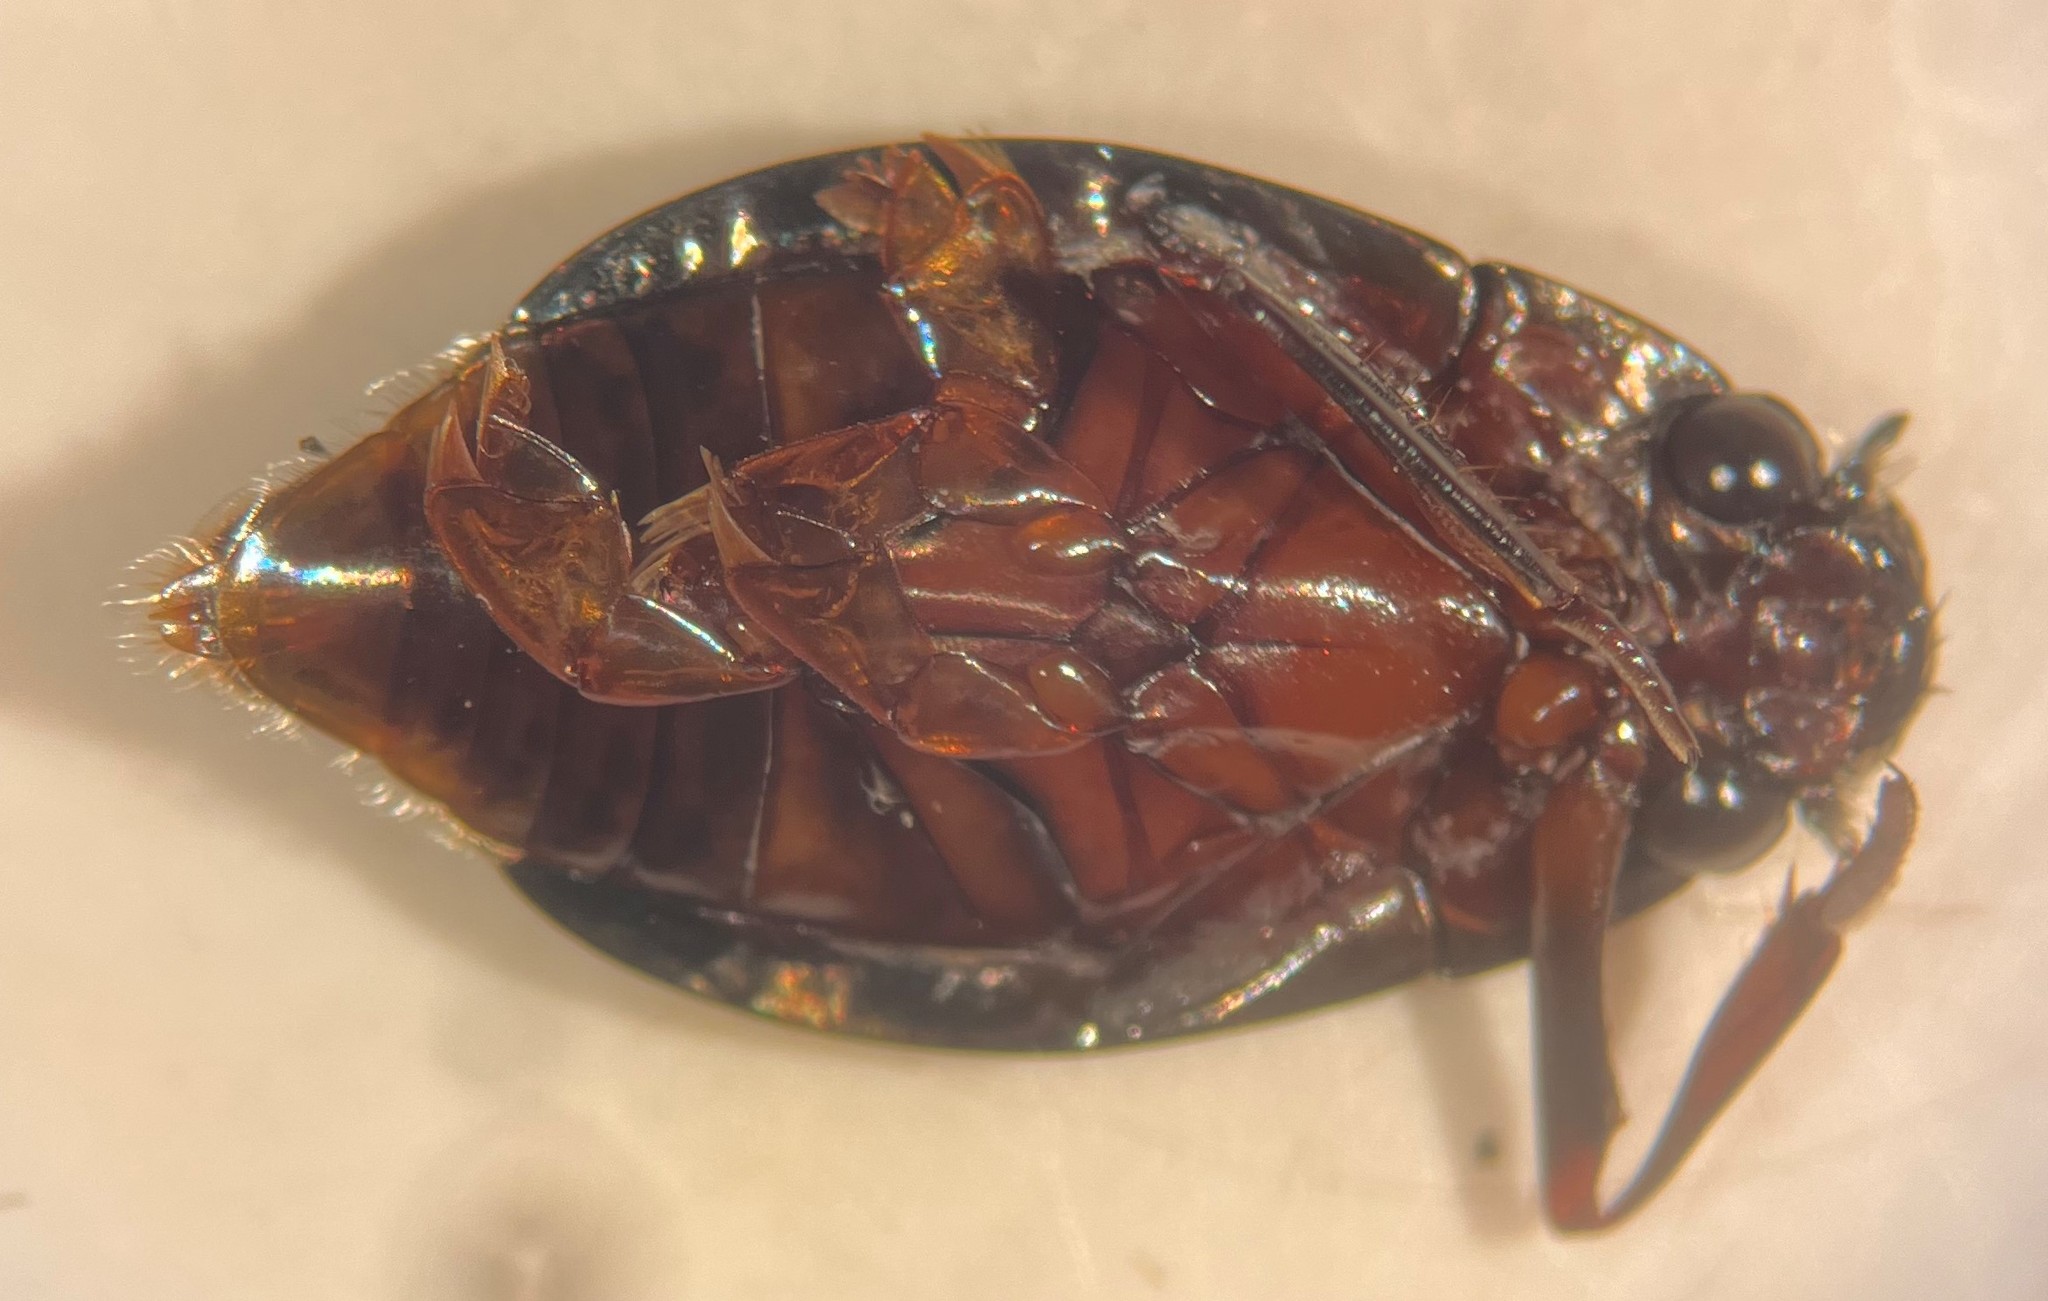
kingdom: Animalia
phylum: Arthropoda
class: Insecta
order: Coleoptera
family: Gyrinidae
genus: Dineutus
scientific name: Dineutus serrulatus
